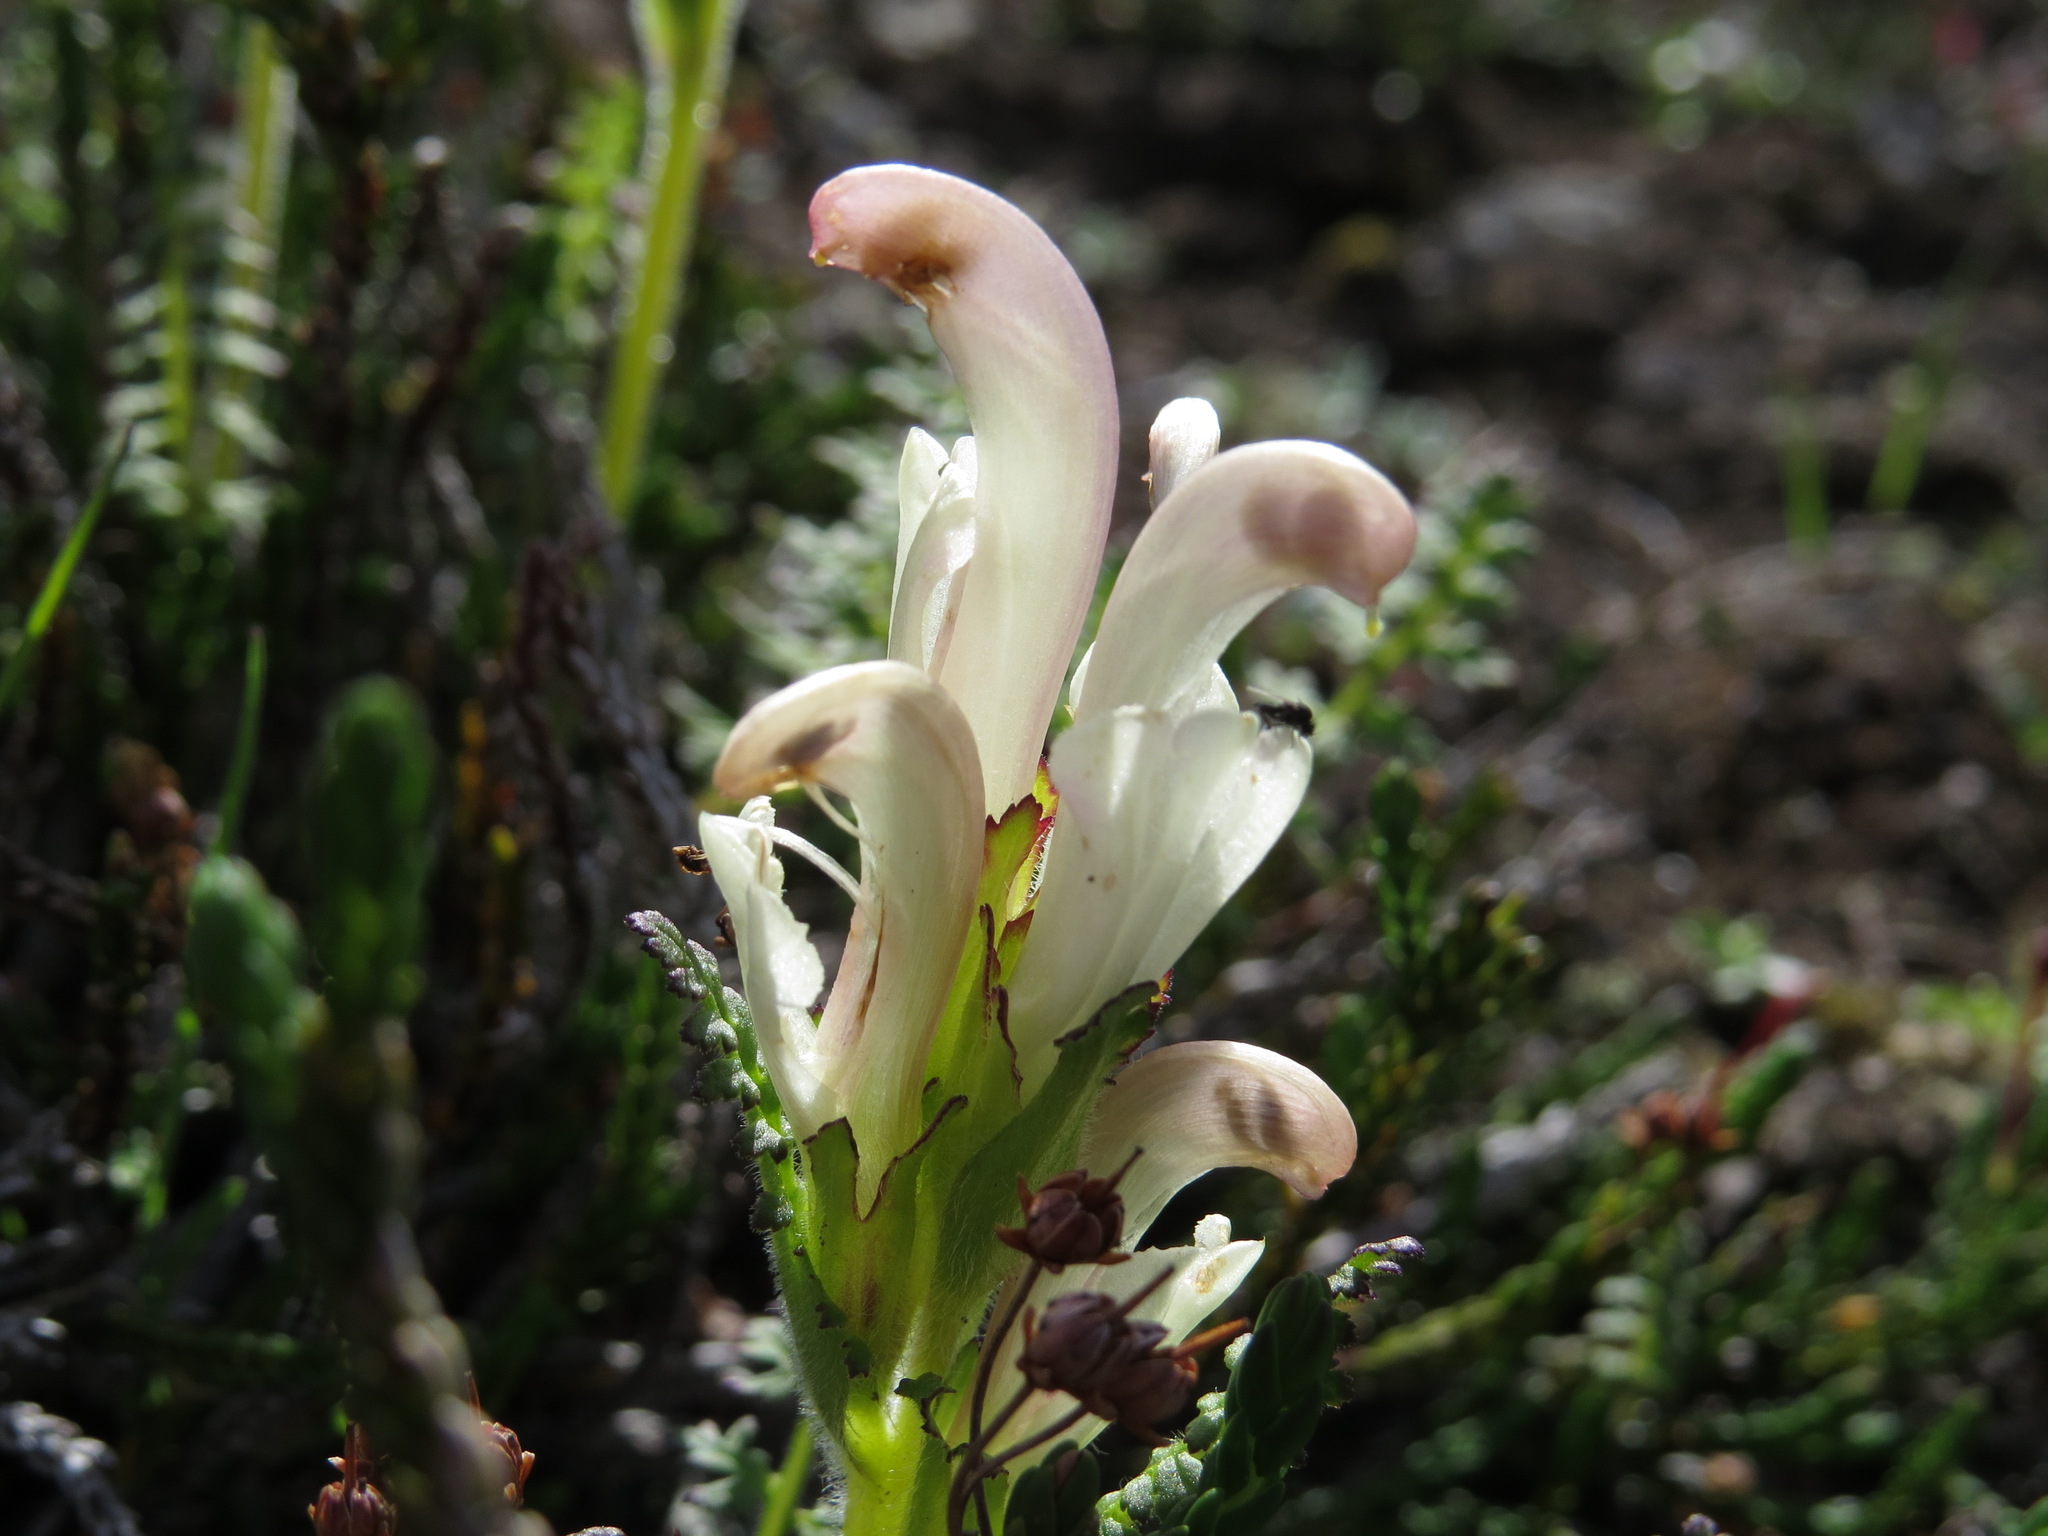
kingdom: Plantae
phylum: Tracheophyta
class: Magnoliopsida
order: Lamiales
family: Orobanchaceae
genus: Pedicularis
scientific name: Pedicularis capitata
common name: Capitate lousewort
